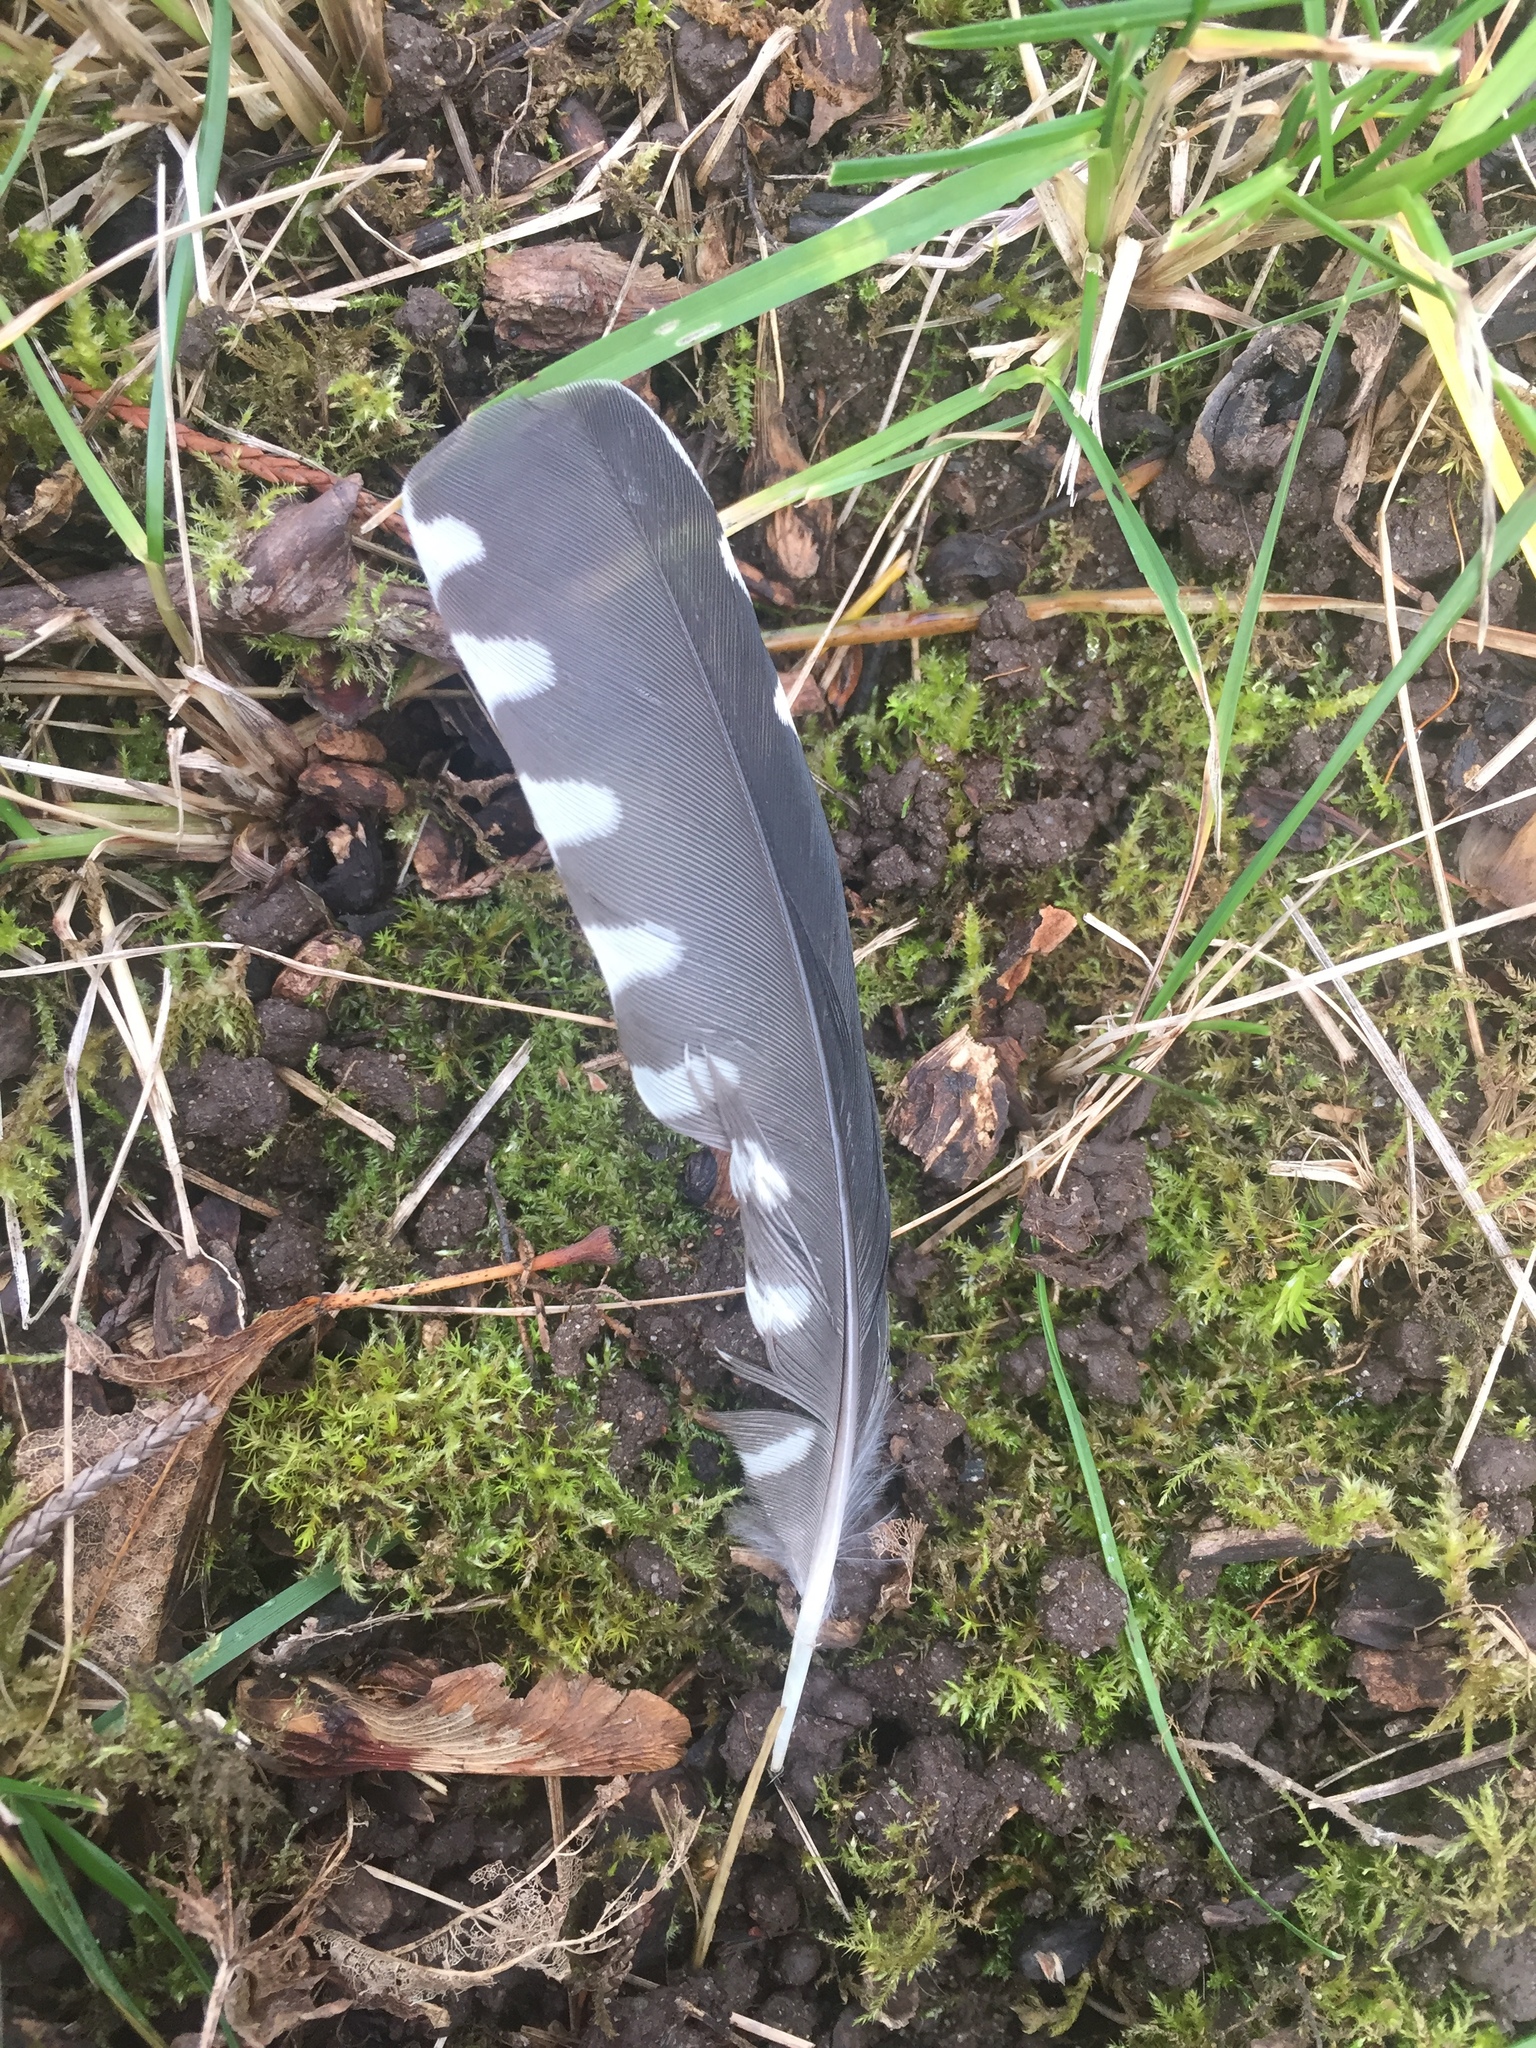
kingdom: Animalia
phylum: Chordata
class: Aves
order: Piciformes
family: Picidae
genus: Sphyrapicus
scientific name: Sphyrapicus ruber
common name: Red-breasted sapsucker
